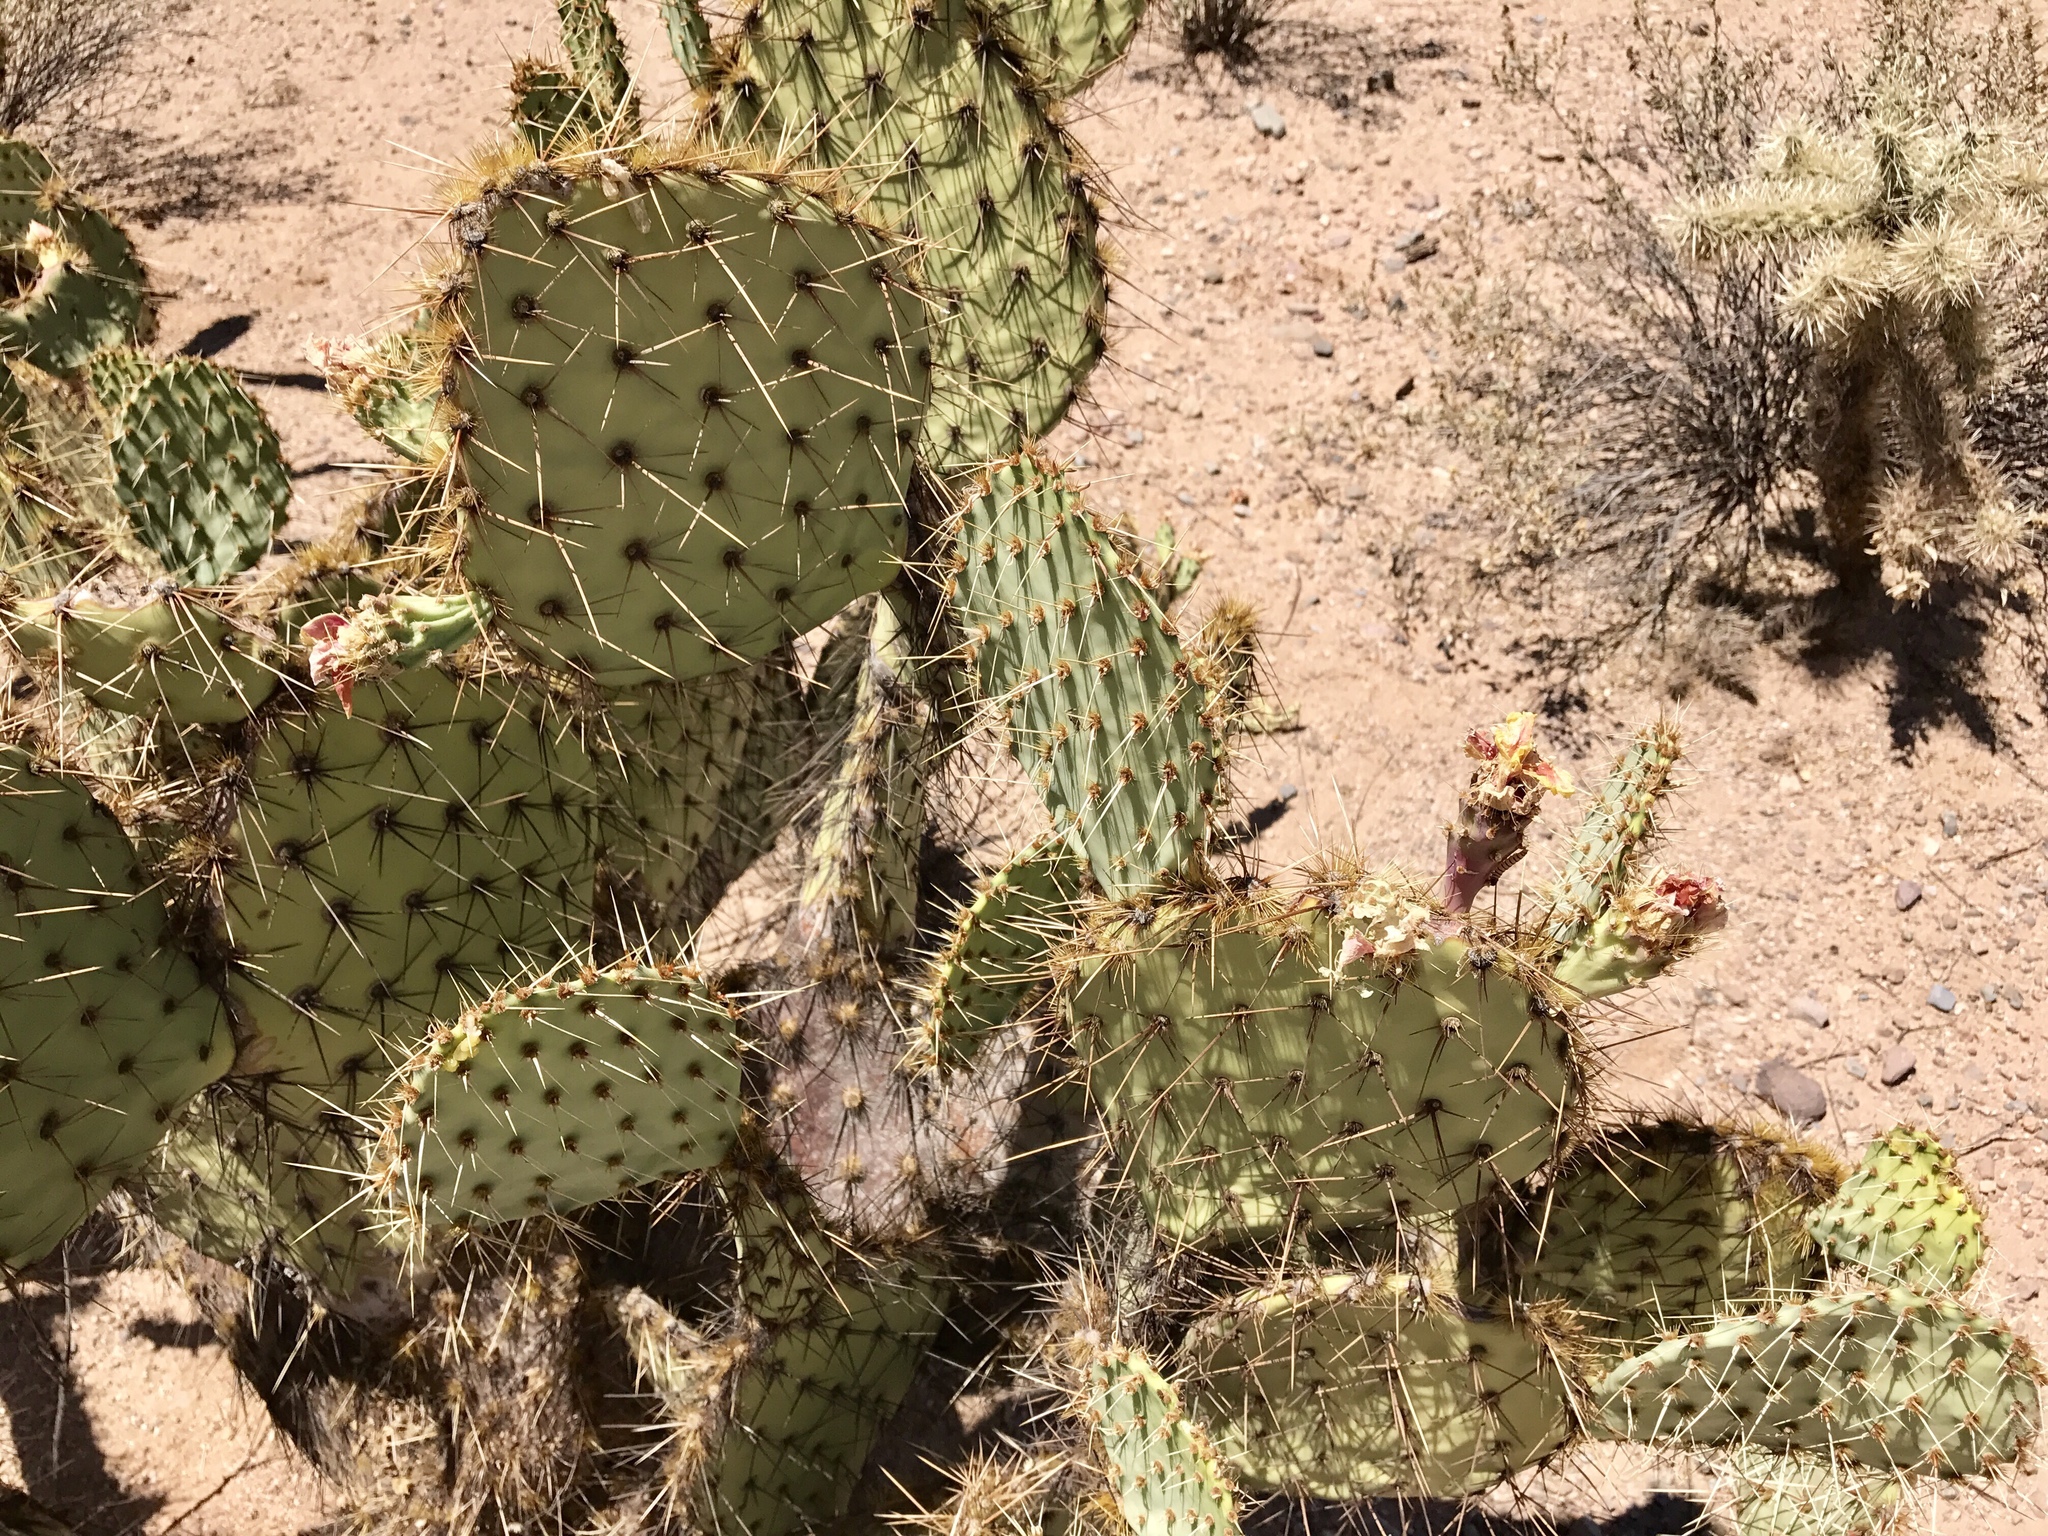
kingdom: Plantae
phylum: Tracheophyta
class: Magnoliopsida
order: Caryophyllales
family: Cactaceae
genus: Opuntia
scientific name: Opuntia engelmannii
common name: Cactus-apple
